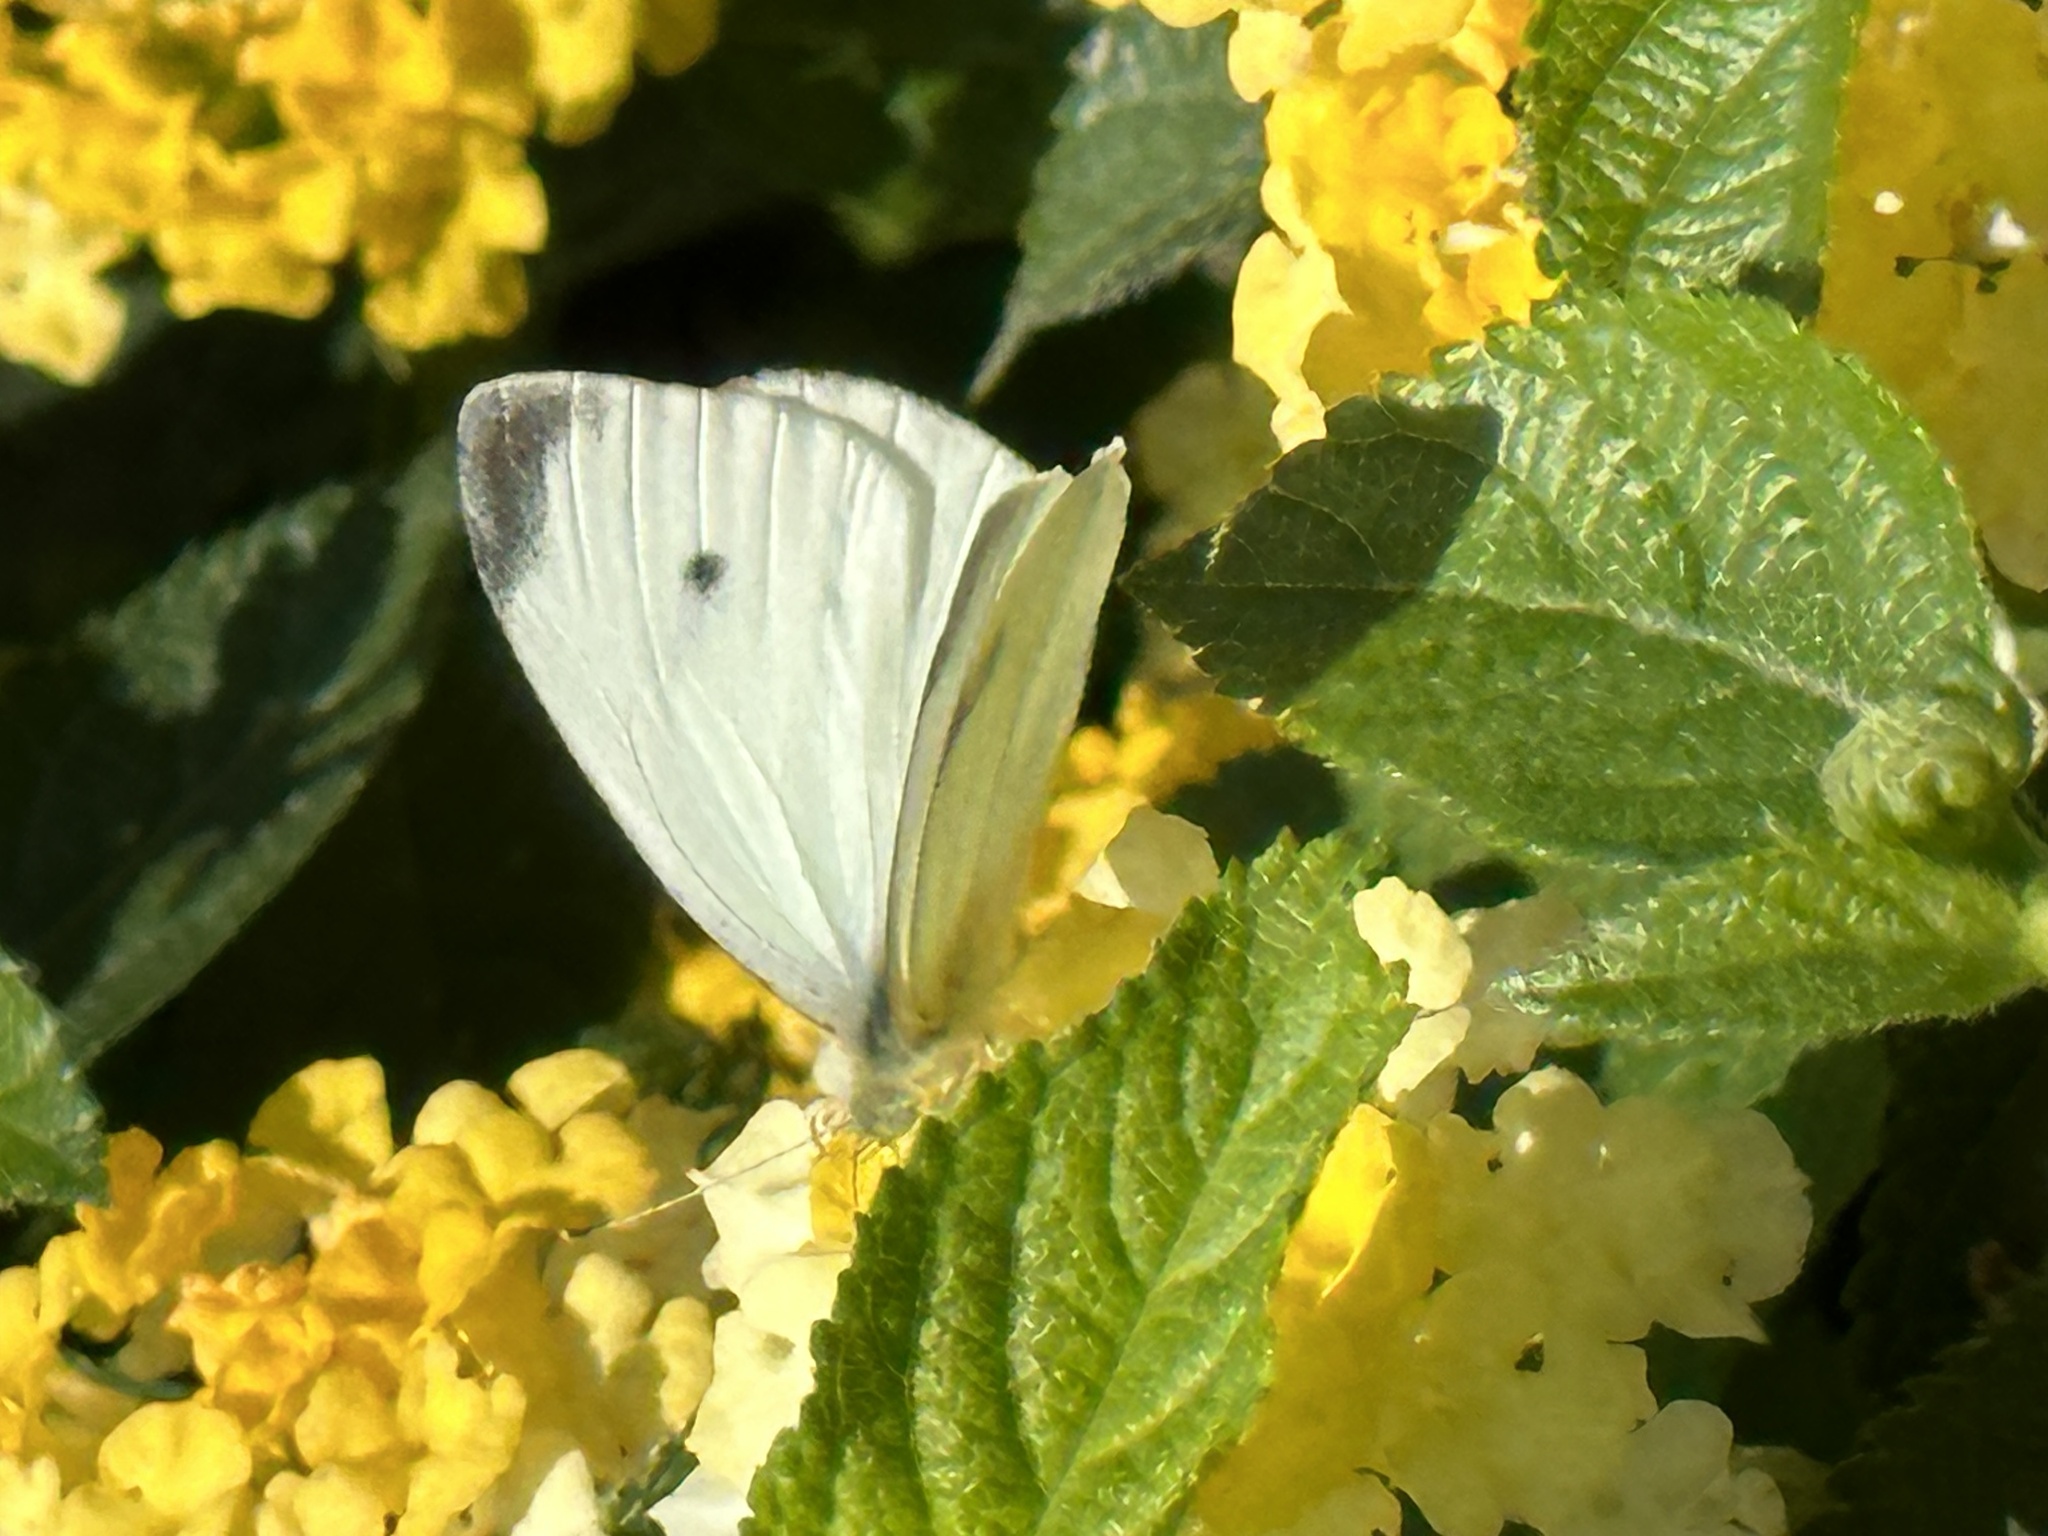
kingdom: Animalia
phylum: Arthropoda
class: Insecta
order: Lepidoptera
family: Pieridae
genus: Pieris
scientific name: Pieris rapae
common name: Small white
